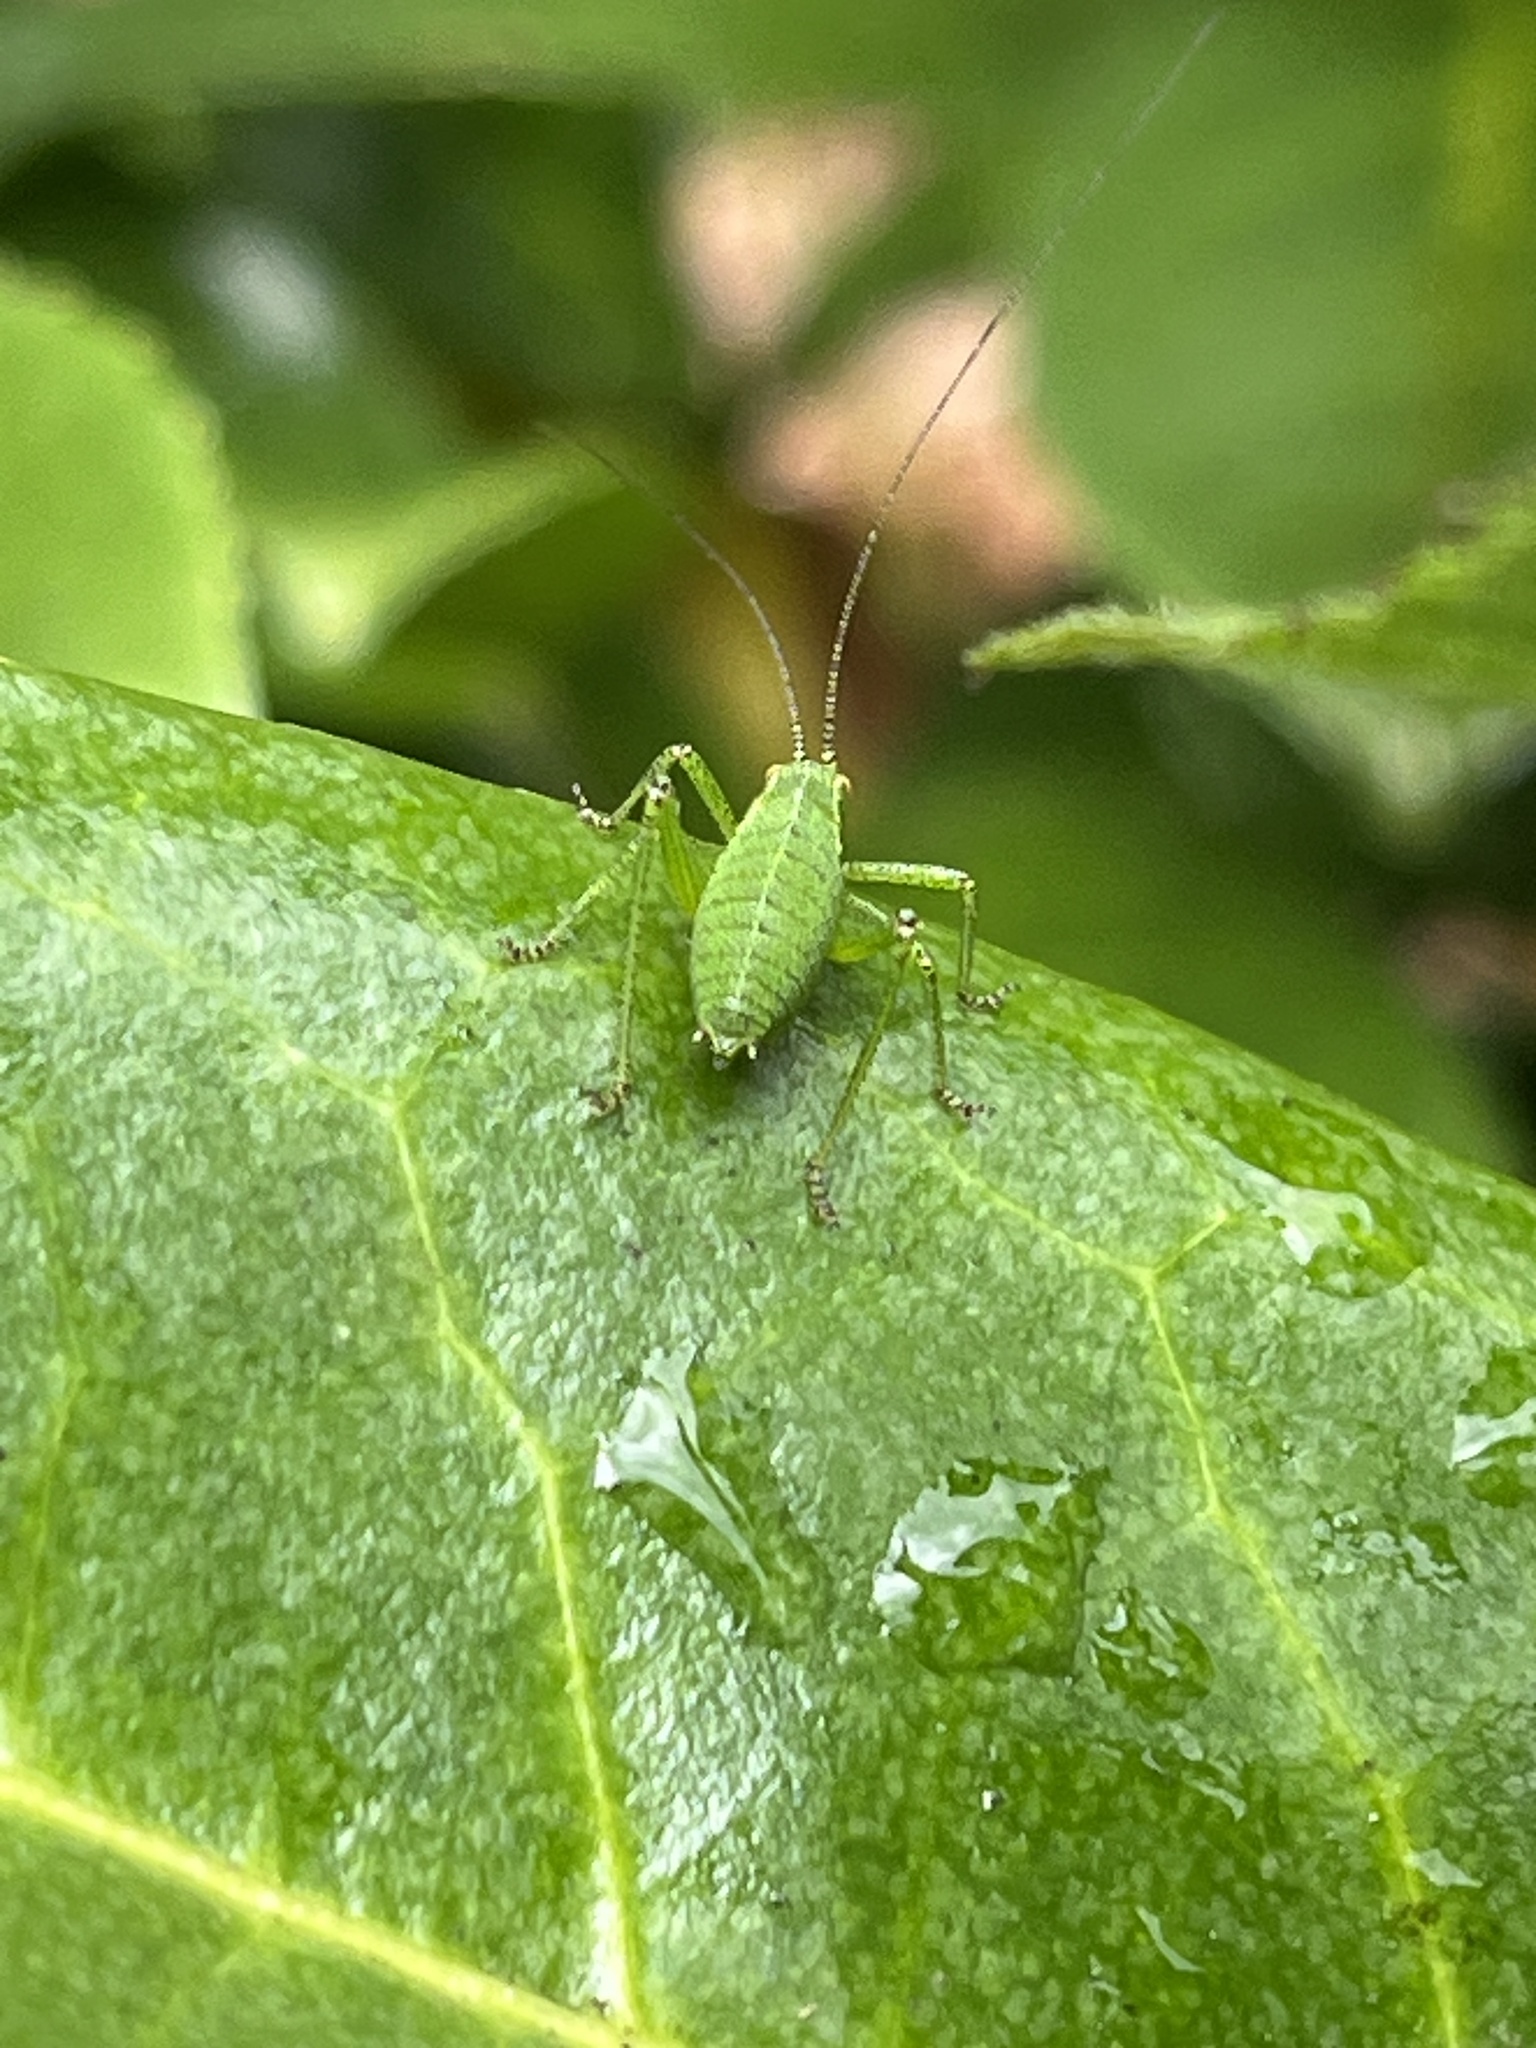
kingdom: Animalia
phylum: Arthropoda
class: Insecta
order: Orthoptera
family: Tettigoniidae
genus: Leptophyes
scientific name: Leptophyes punctatissima
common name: Speckled bush-cricket
